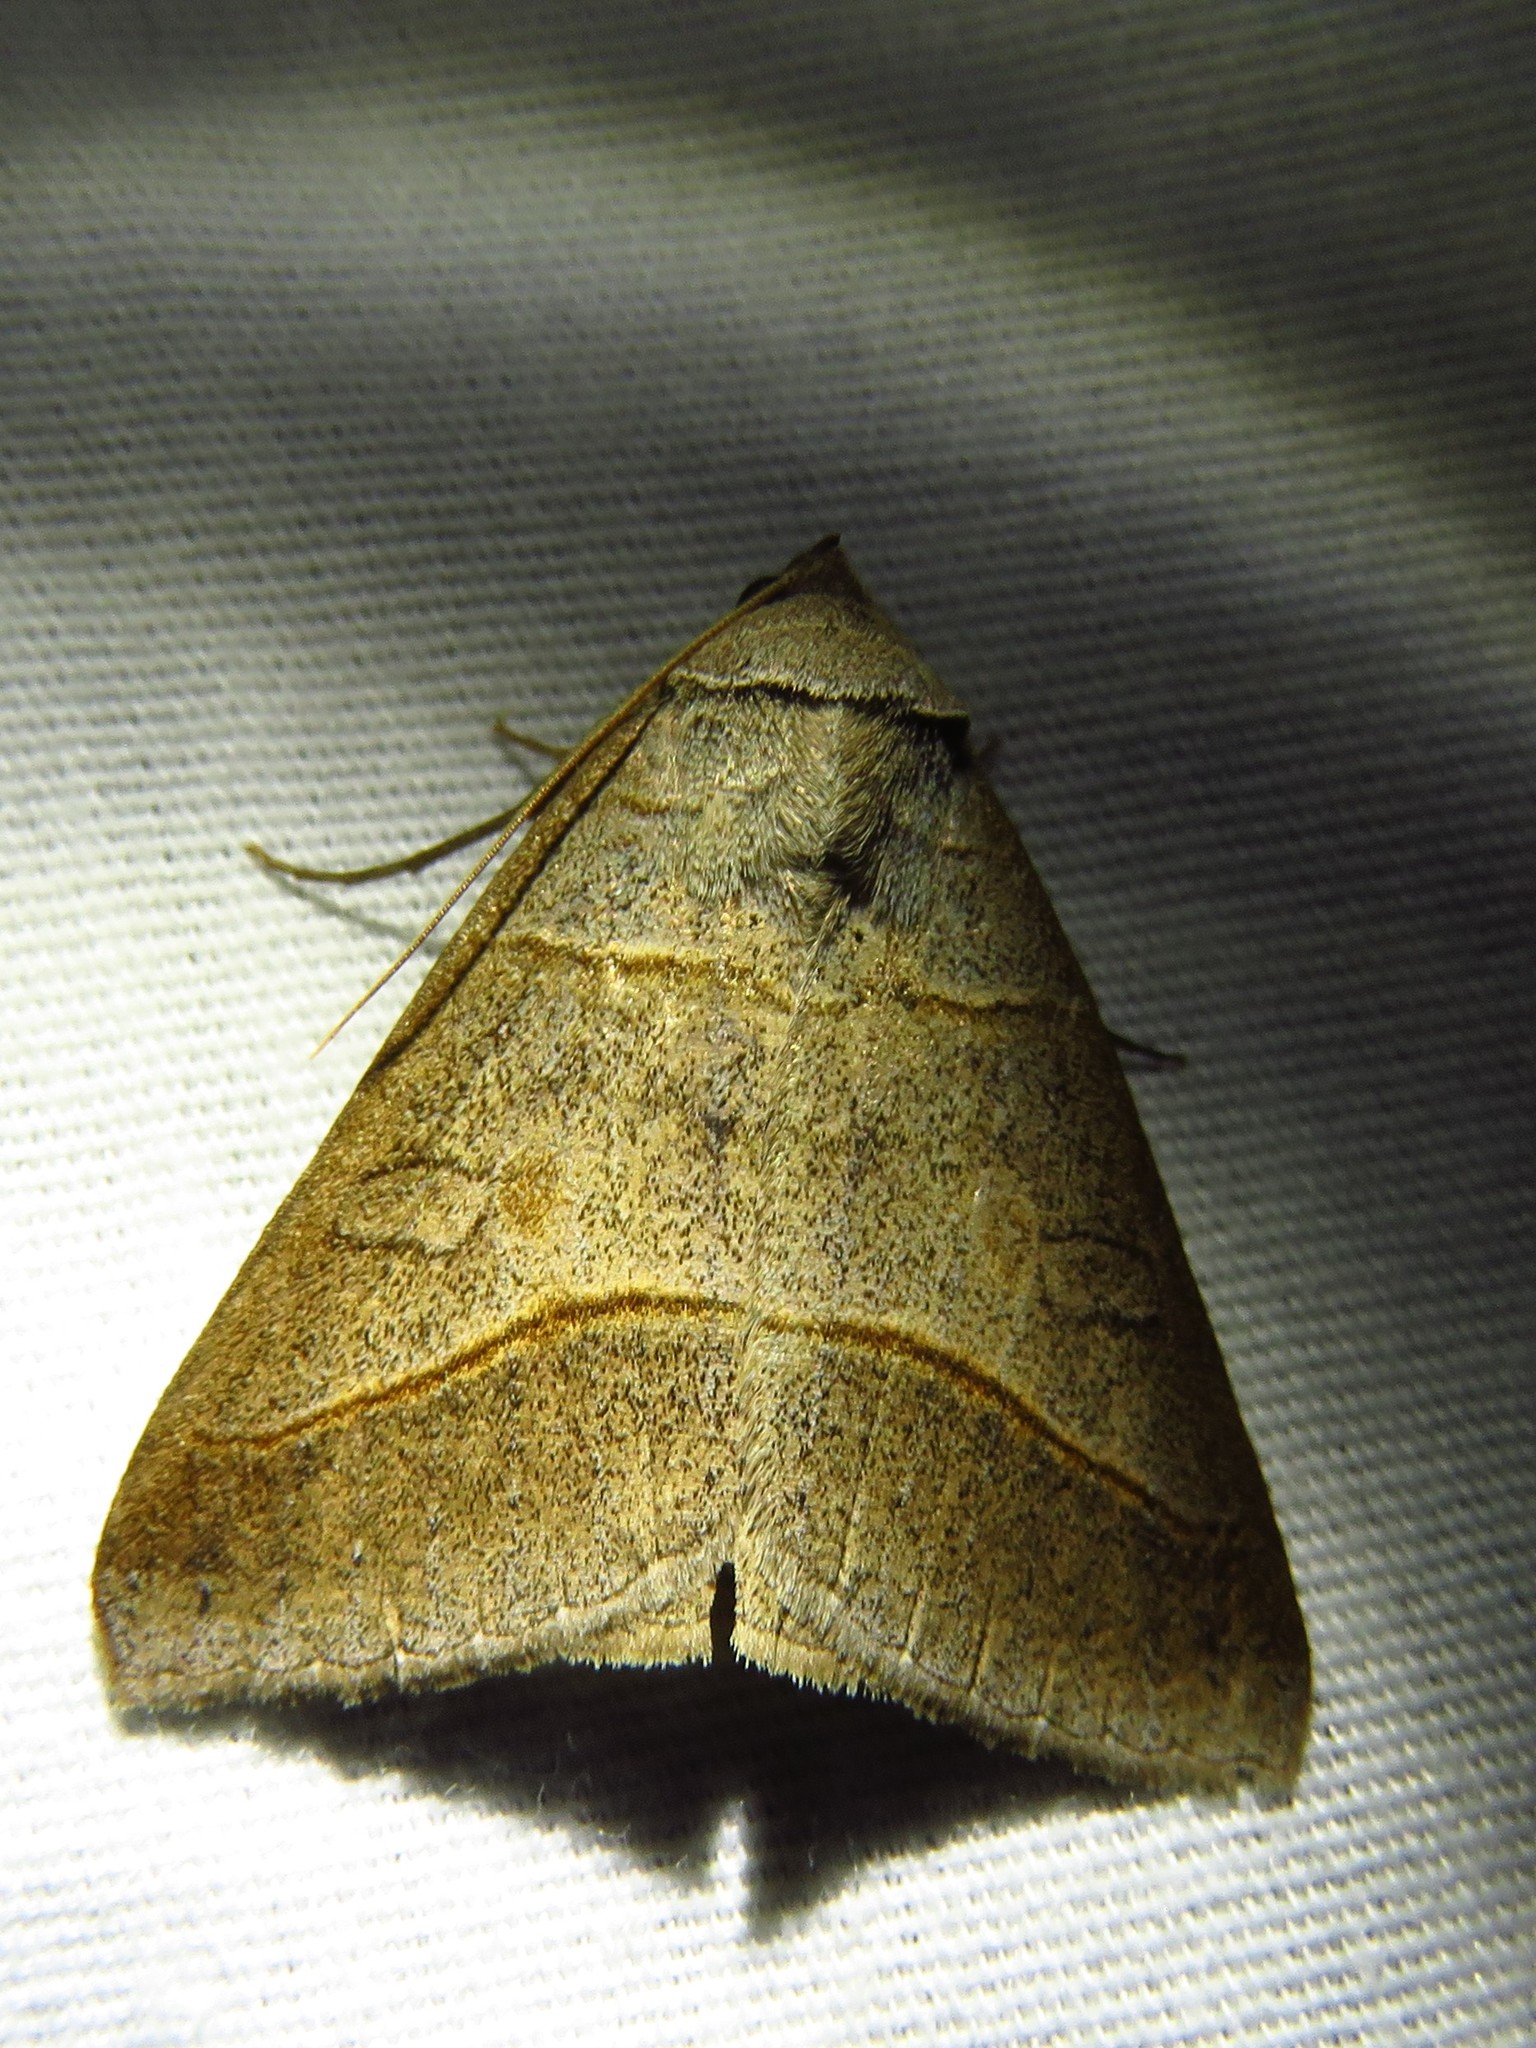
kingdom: Animalia
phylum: Arthropoda
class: Insecta
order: Lepidoptera
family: Erebidae
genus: Mocis
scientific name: Mocis texana
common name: Texas mocis moth
